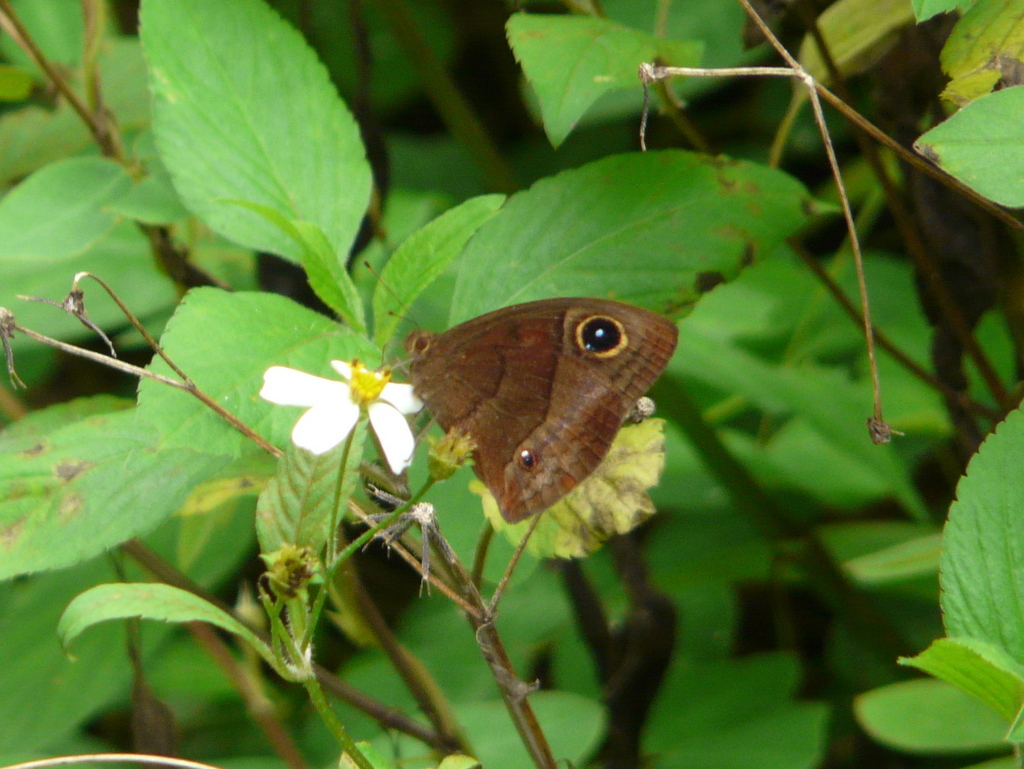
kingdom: Animalia
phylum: Arthropoda
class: Insecta
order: Lepidoptera
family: Nymphalidae
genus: Calisto
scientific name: Calisto zangis
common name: Jamaican satyr
